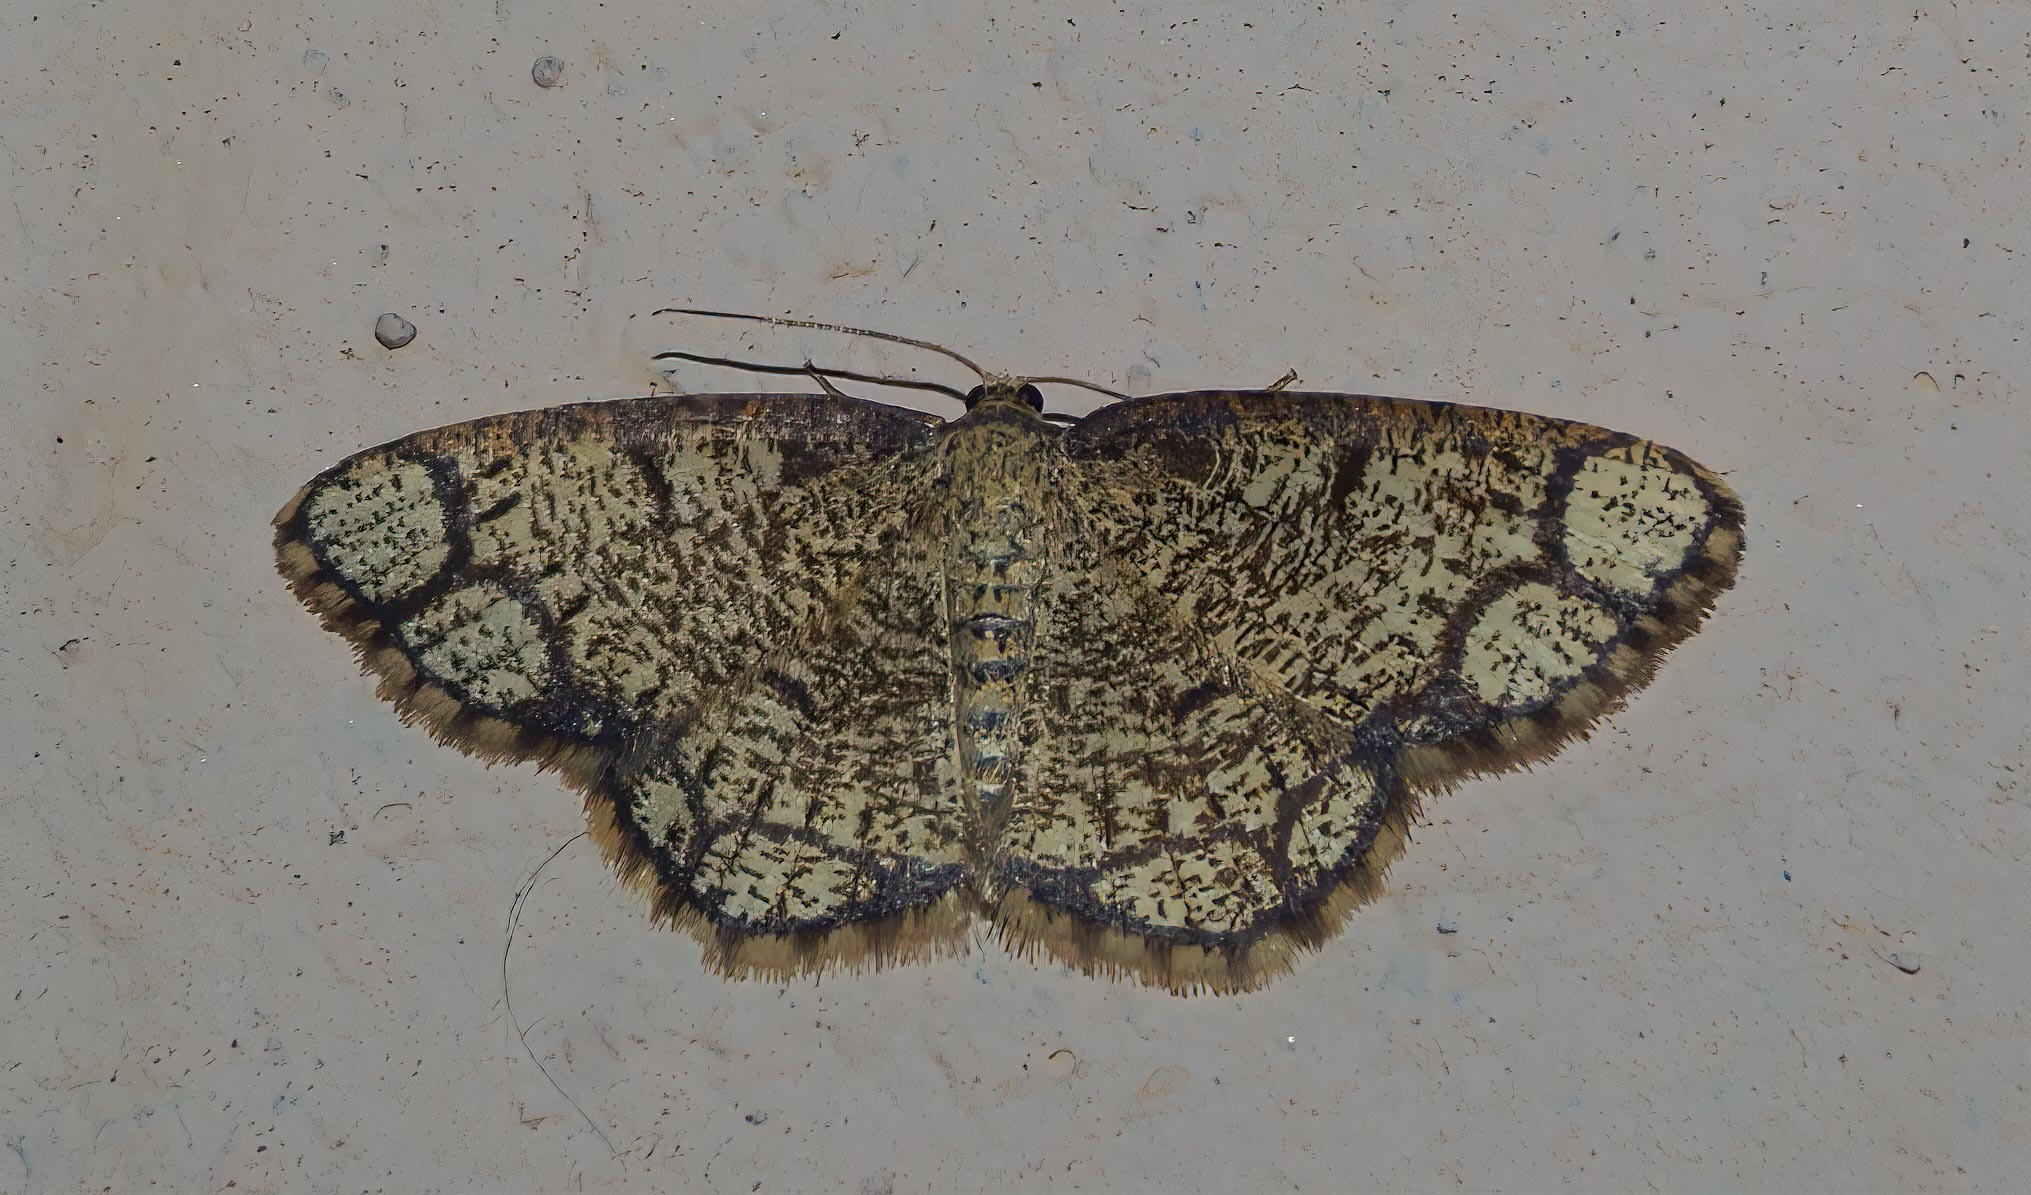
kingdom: Animalia
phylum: Arthropoda
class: Insecta
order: Lepidoptera
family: Geometridae
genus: Stegania
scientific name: Stegania cararia
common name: Ringed border
